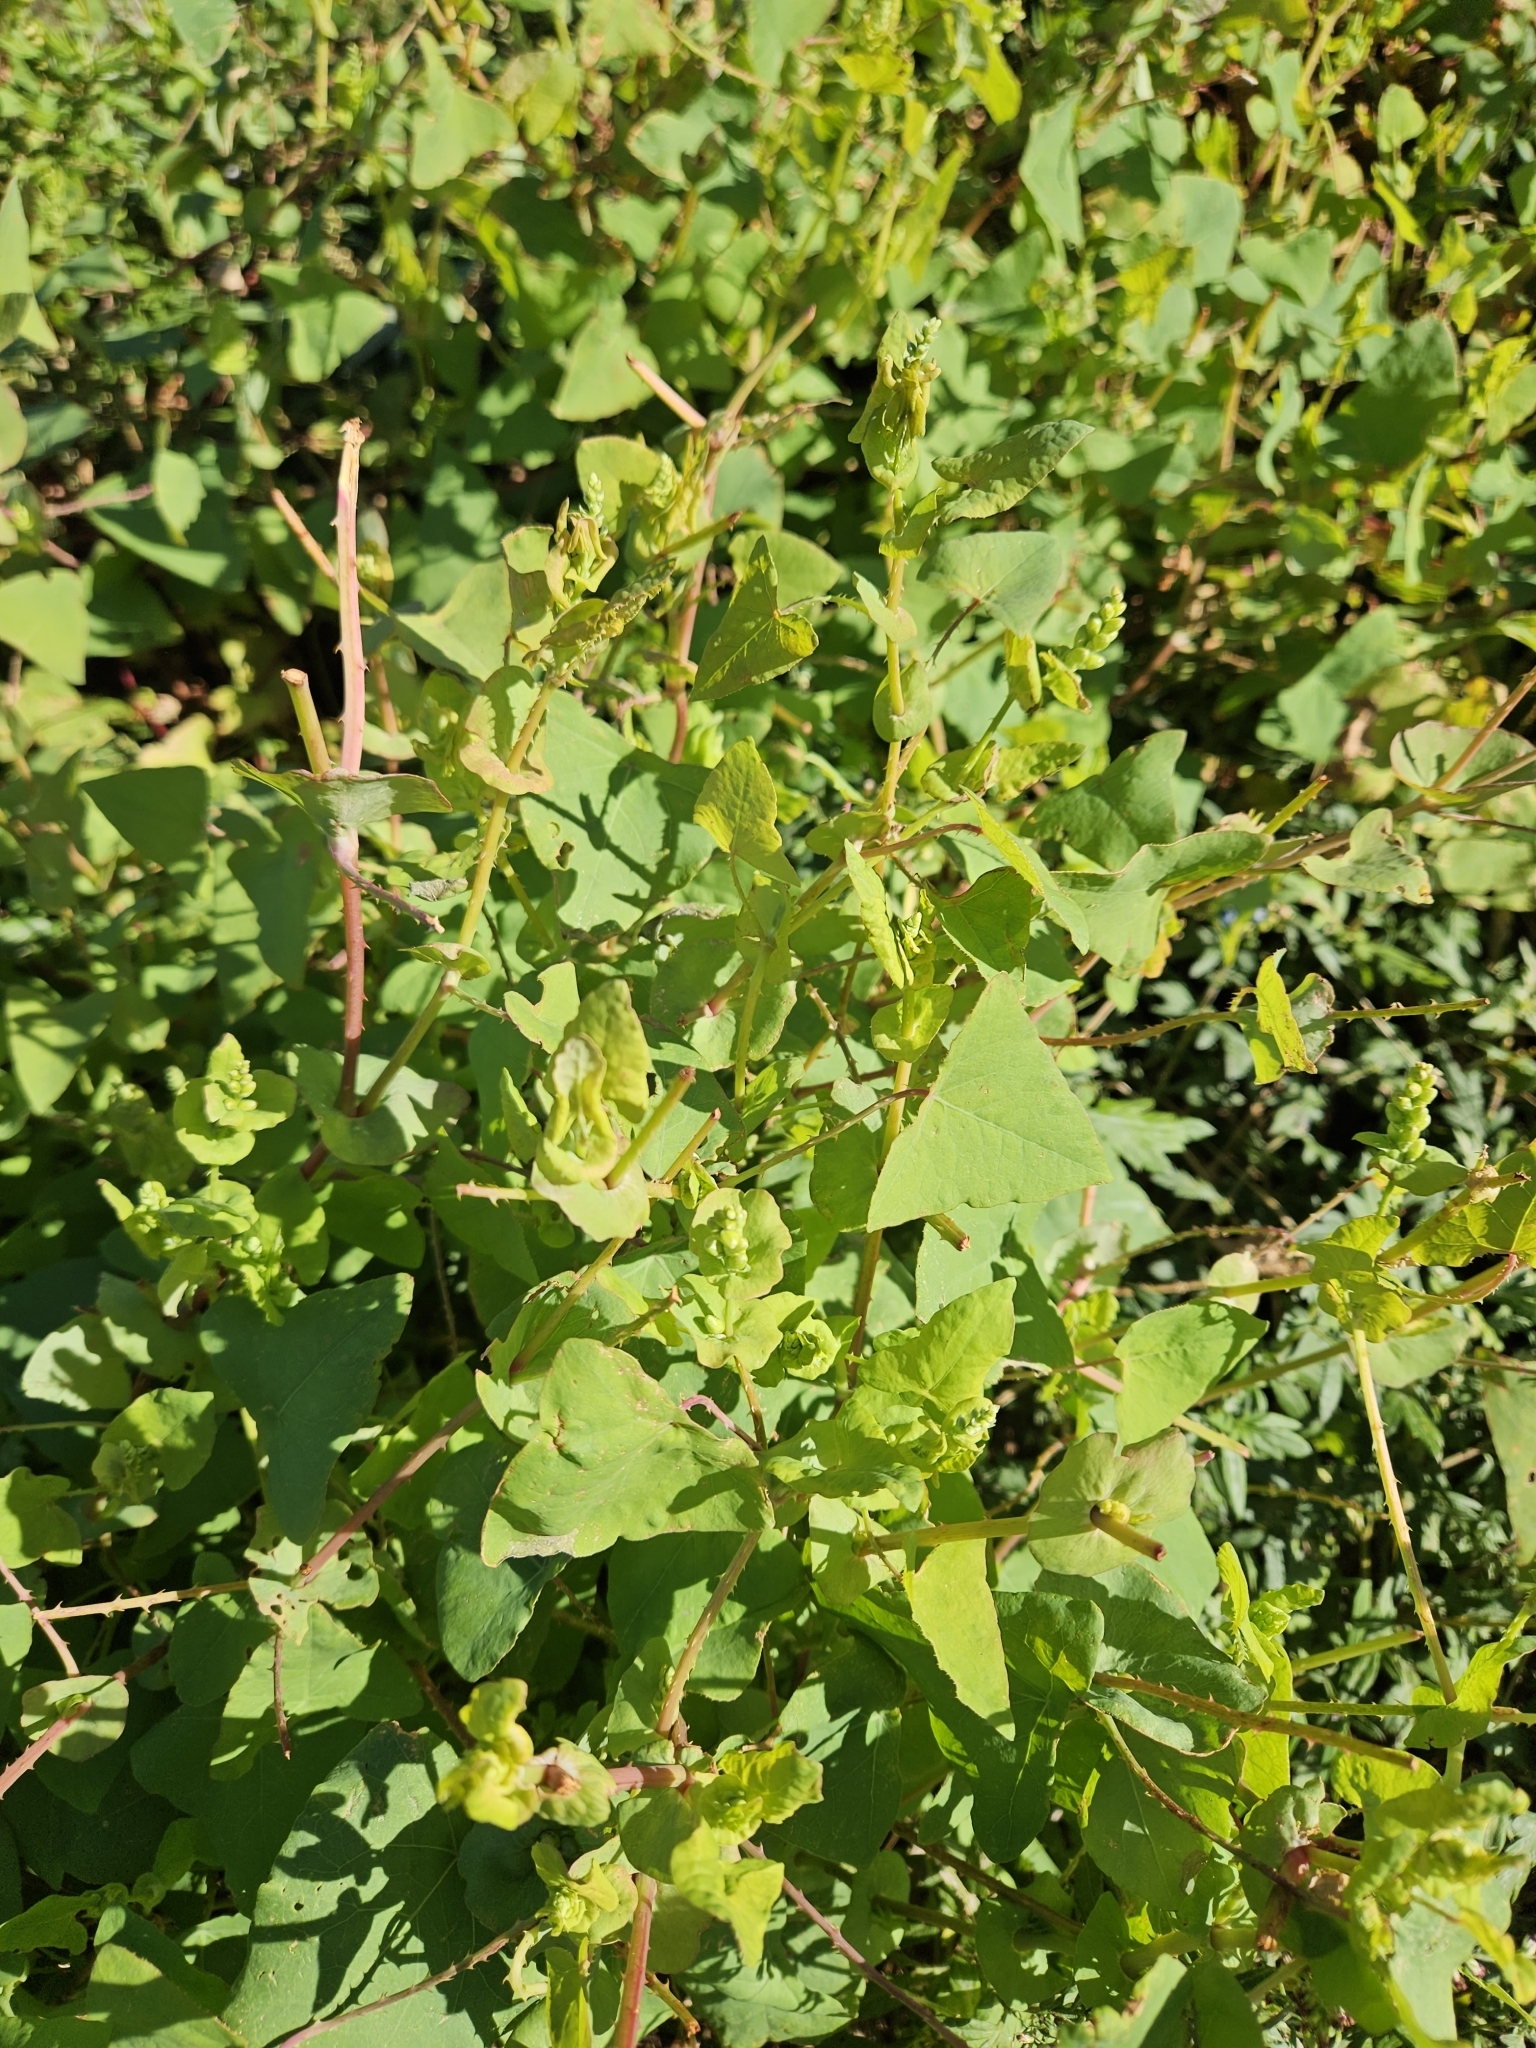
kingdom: Plantae
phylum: Tracheophyta
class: Magnoliopsida
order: Caryophyllales
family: Polygonaceae
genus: Persicaria
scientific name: Persicaria perfoliata
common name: Asiatic tearthumb
